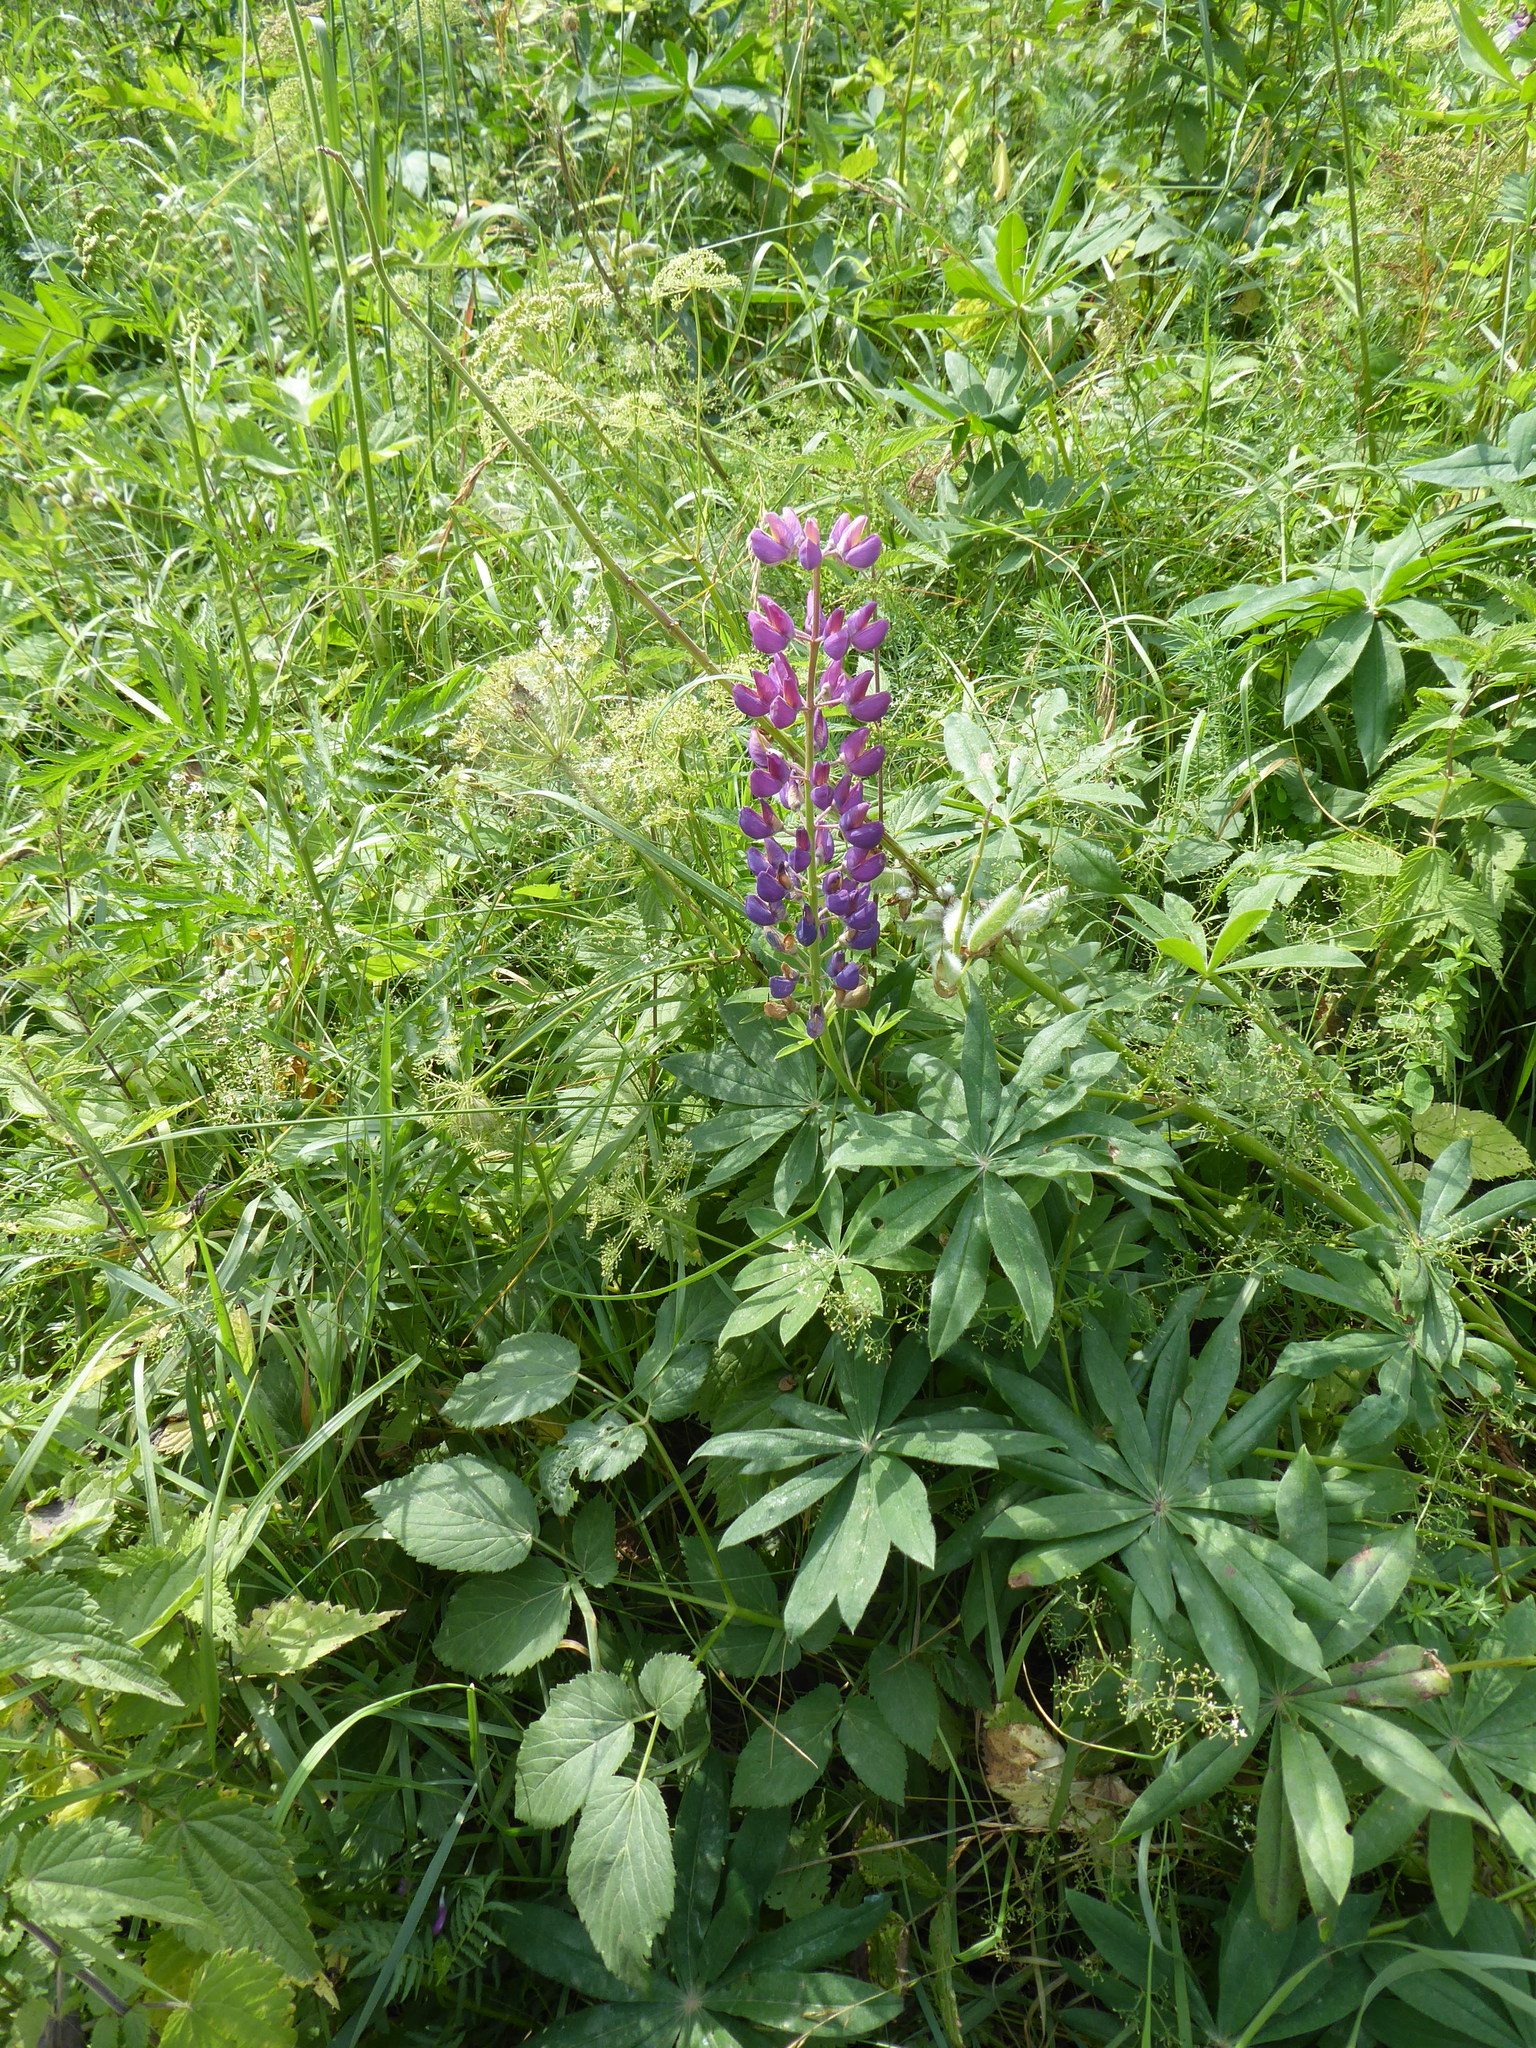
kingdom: Plantae
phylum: Tracheophyta
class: Magnoliopsida
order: Fabales
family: Fabaceae
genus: Lupinus
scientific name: Lupinus polyphyllus
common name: Garden lupin
